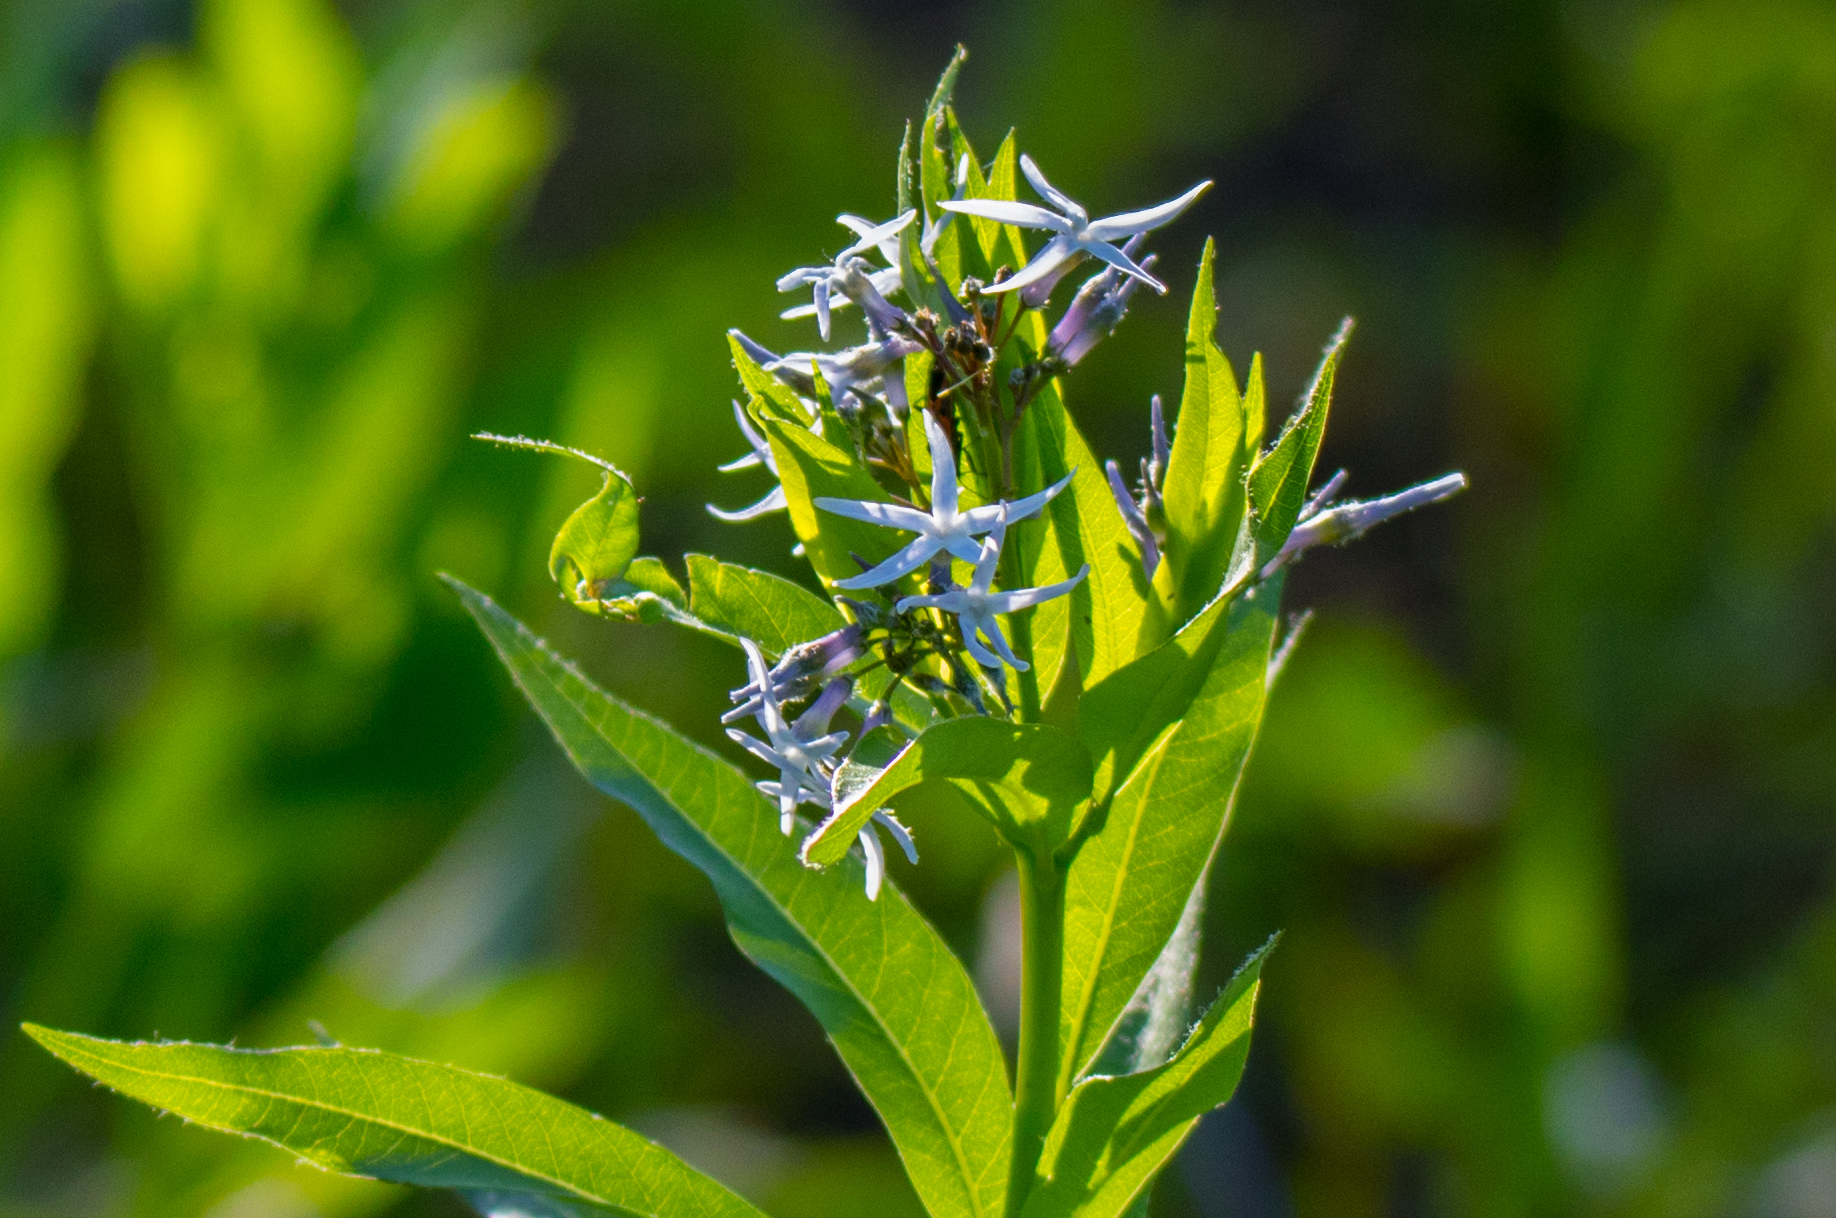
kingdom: Plantae
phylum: Tracheophyta
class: Magnoliopsida
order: Gentianales
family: Apocynaceae
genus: Amsonia
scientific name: Amsonia tabernaemontana
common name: Texas-star
